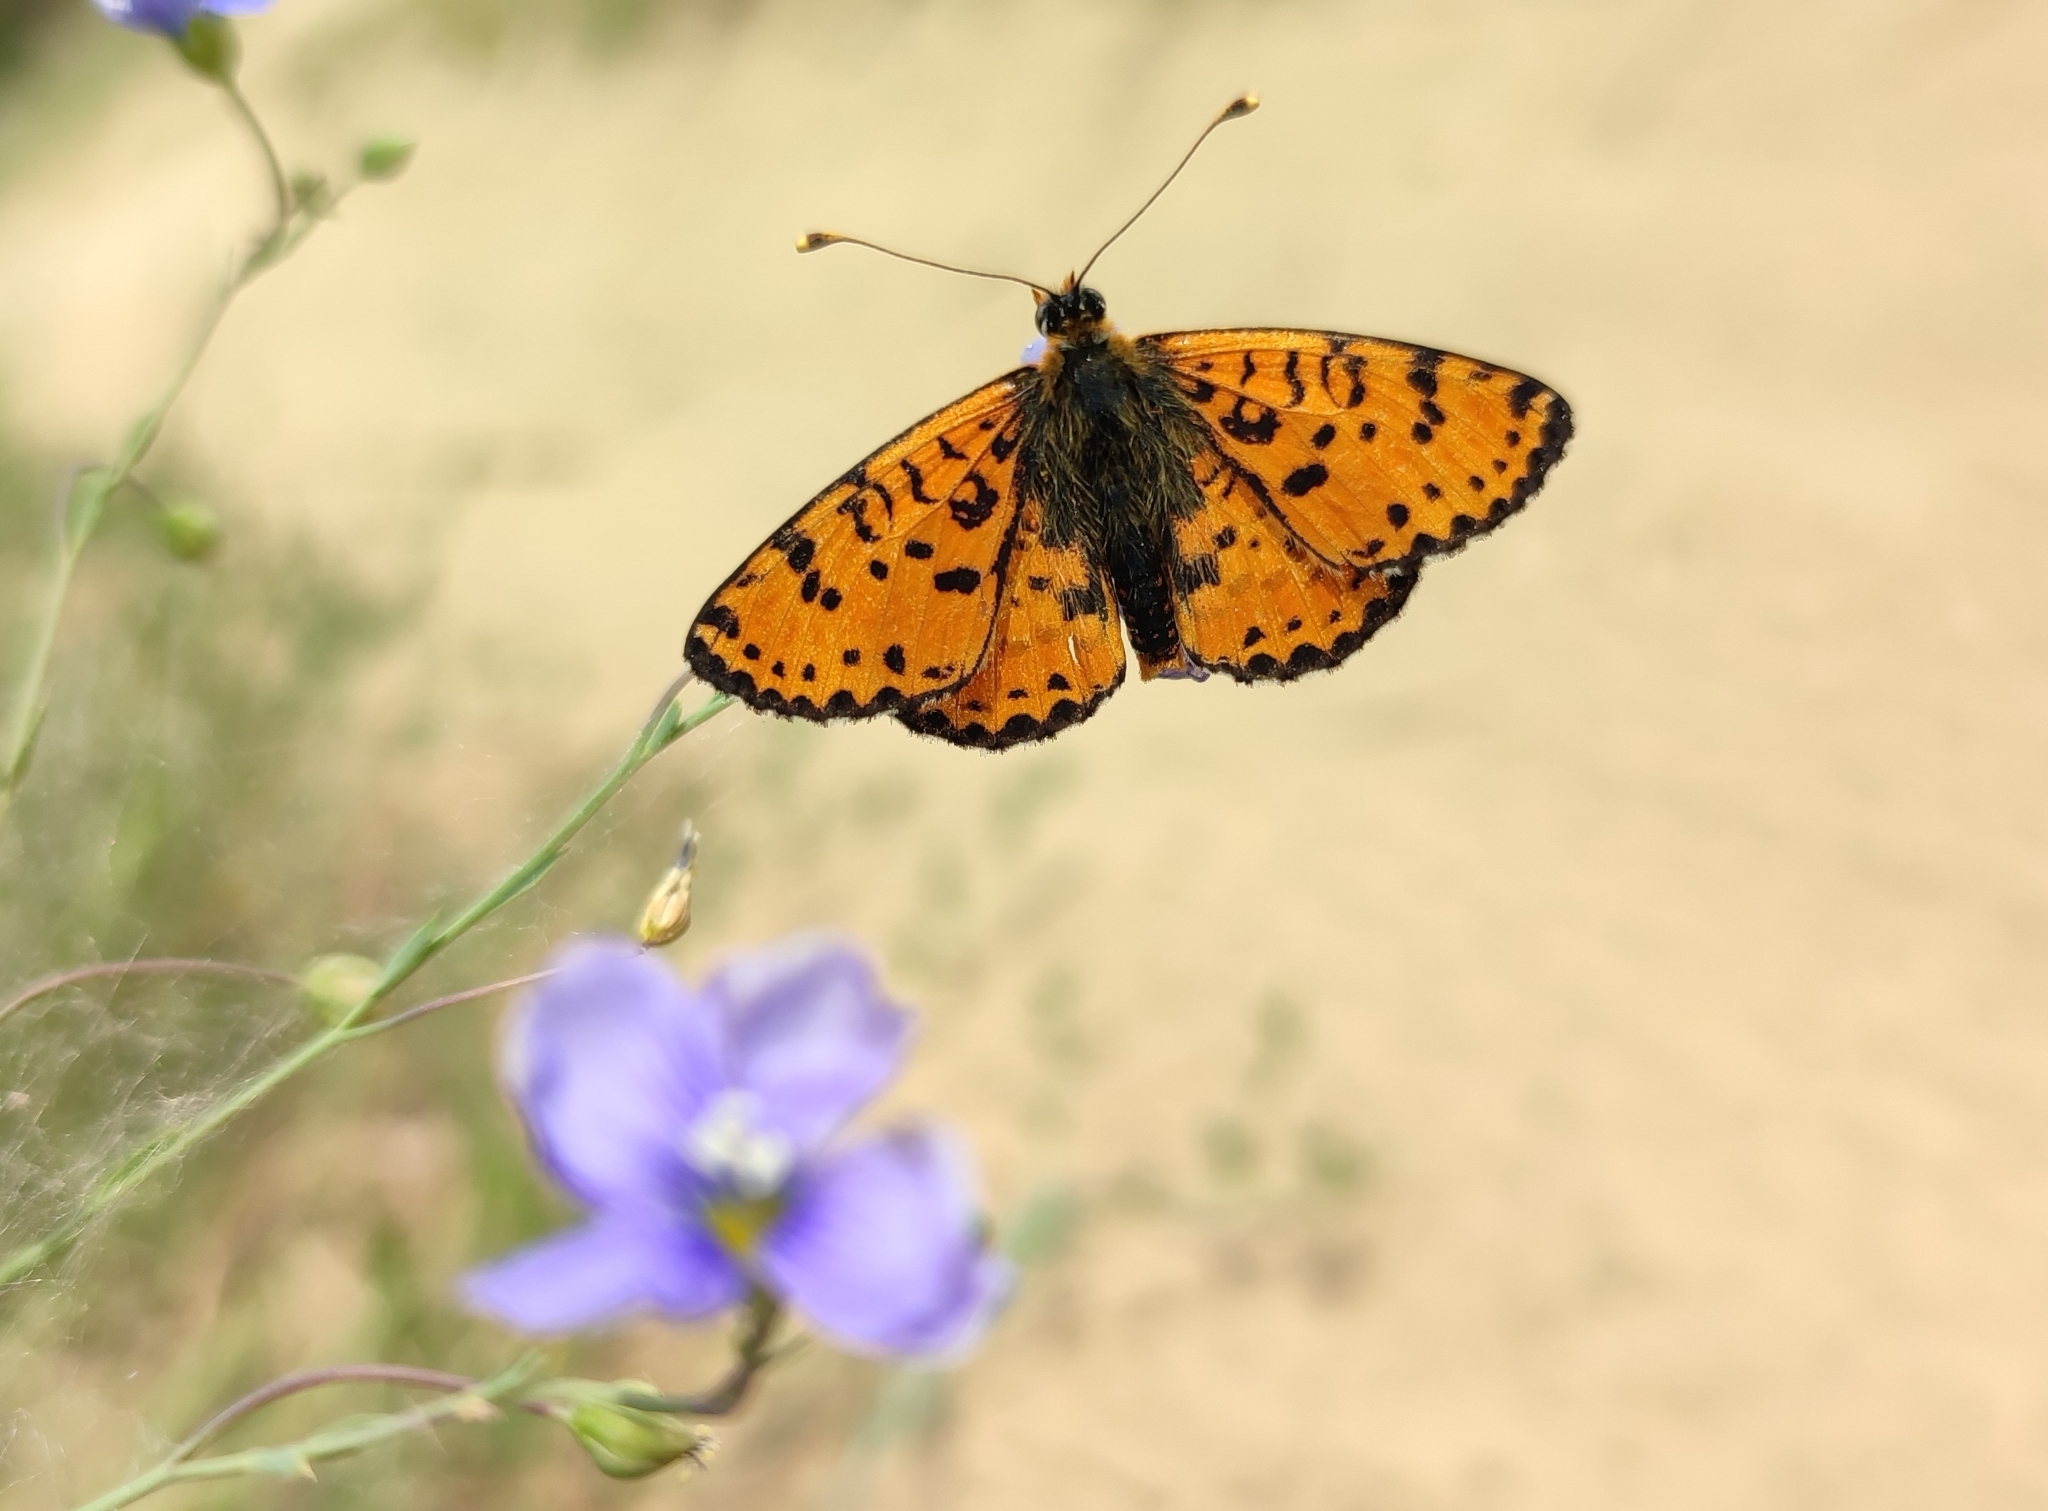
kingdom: Animalia
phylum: Arthropoda
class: Insecta
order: Lepidoptera
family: Nymphalidae
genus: Melitaea
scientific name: Melitaea didyma
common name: Spotted fritillary
